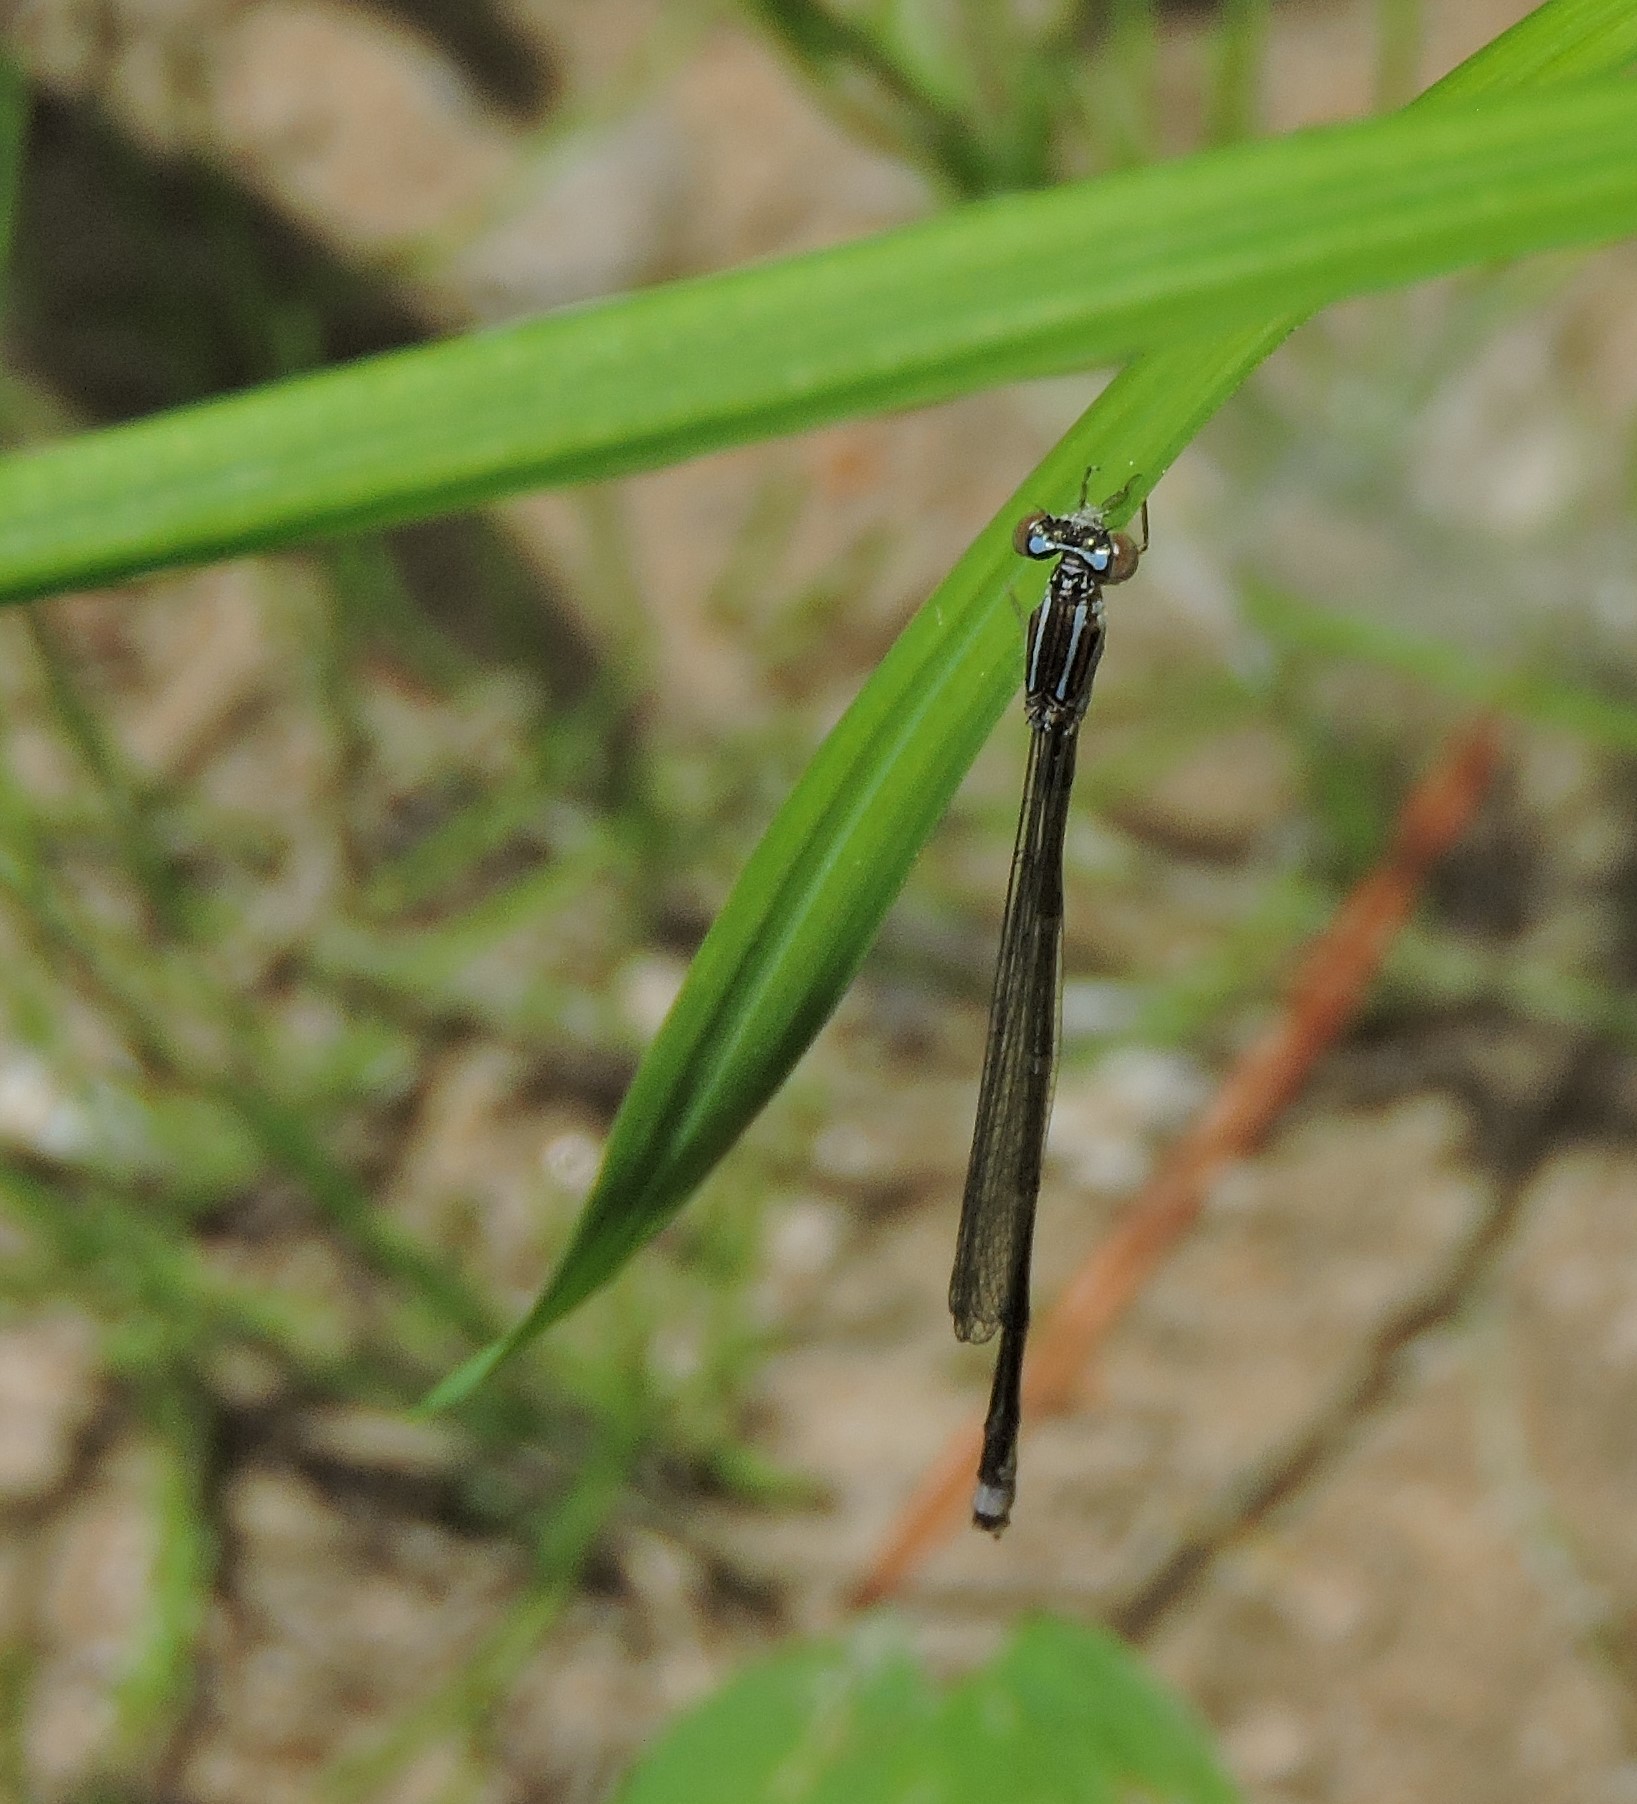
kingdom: Animalia
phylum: Arthropoda
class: Insecta
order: Odonata
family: Coenagrionidae
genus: Enallagma
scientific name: Enallagma exsulans
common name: Stream bluet
